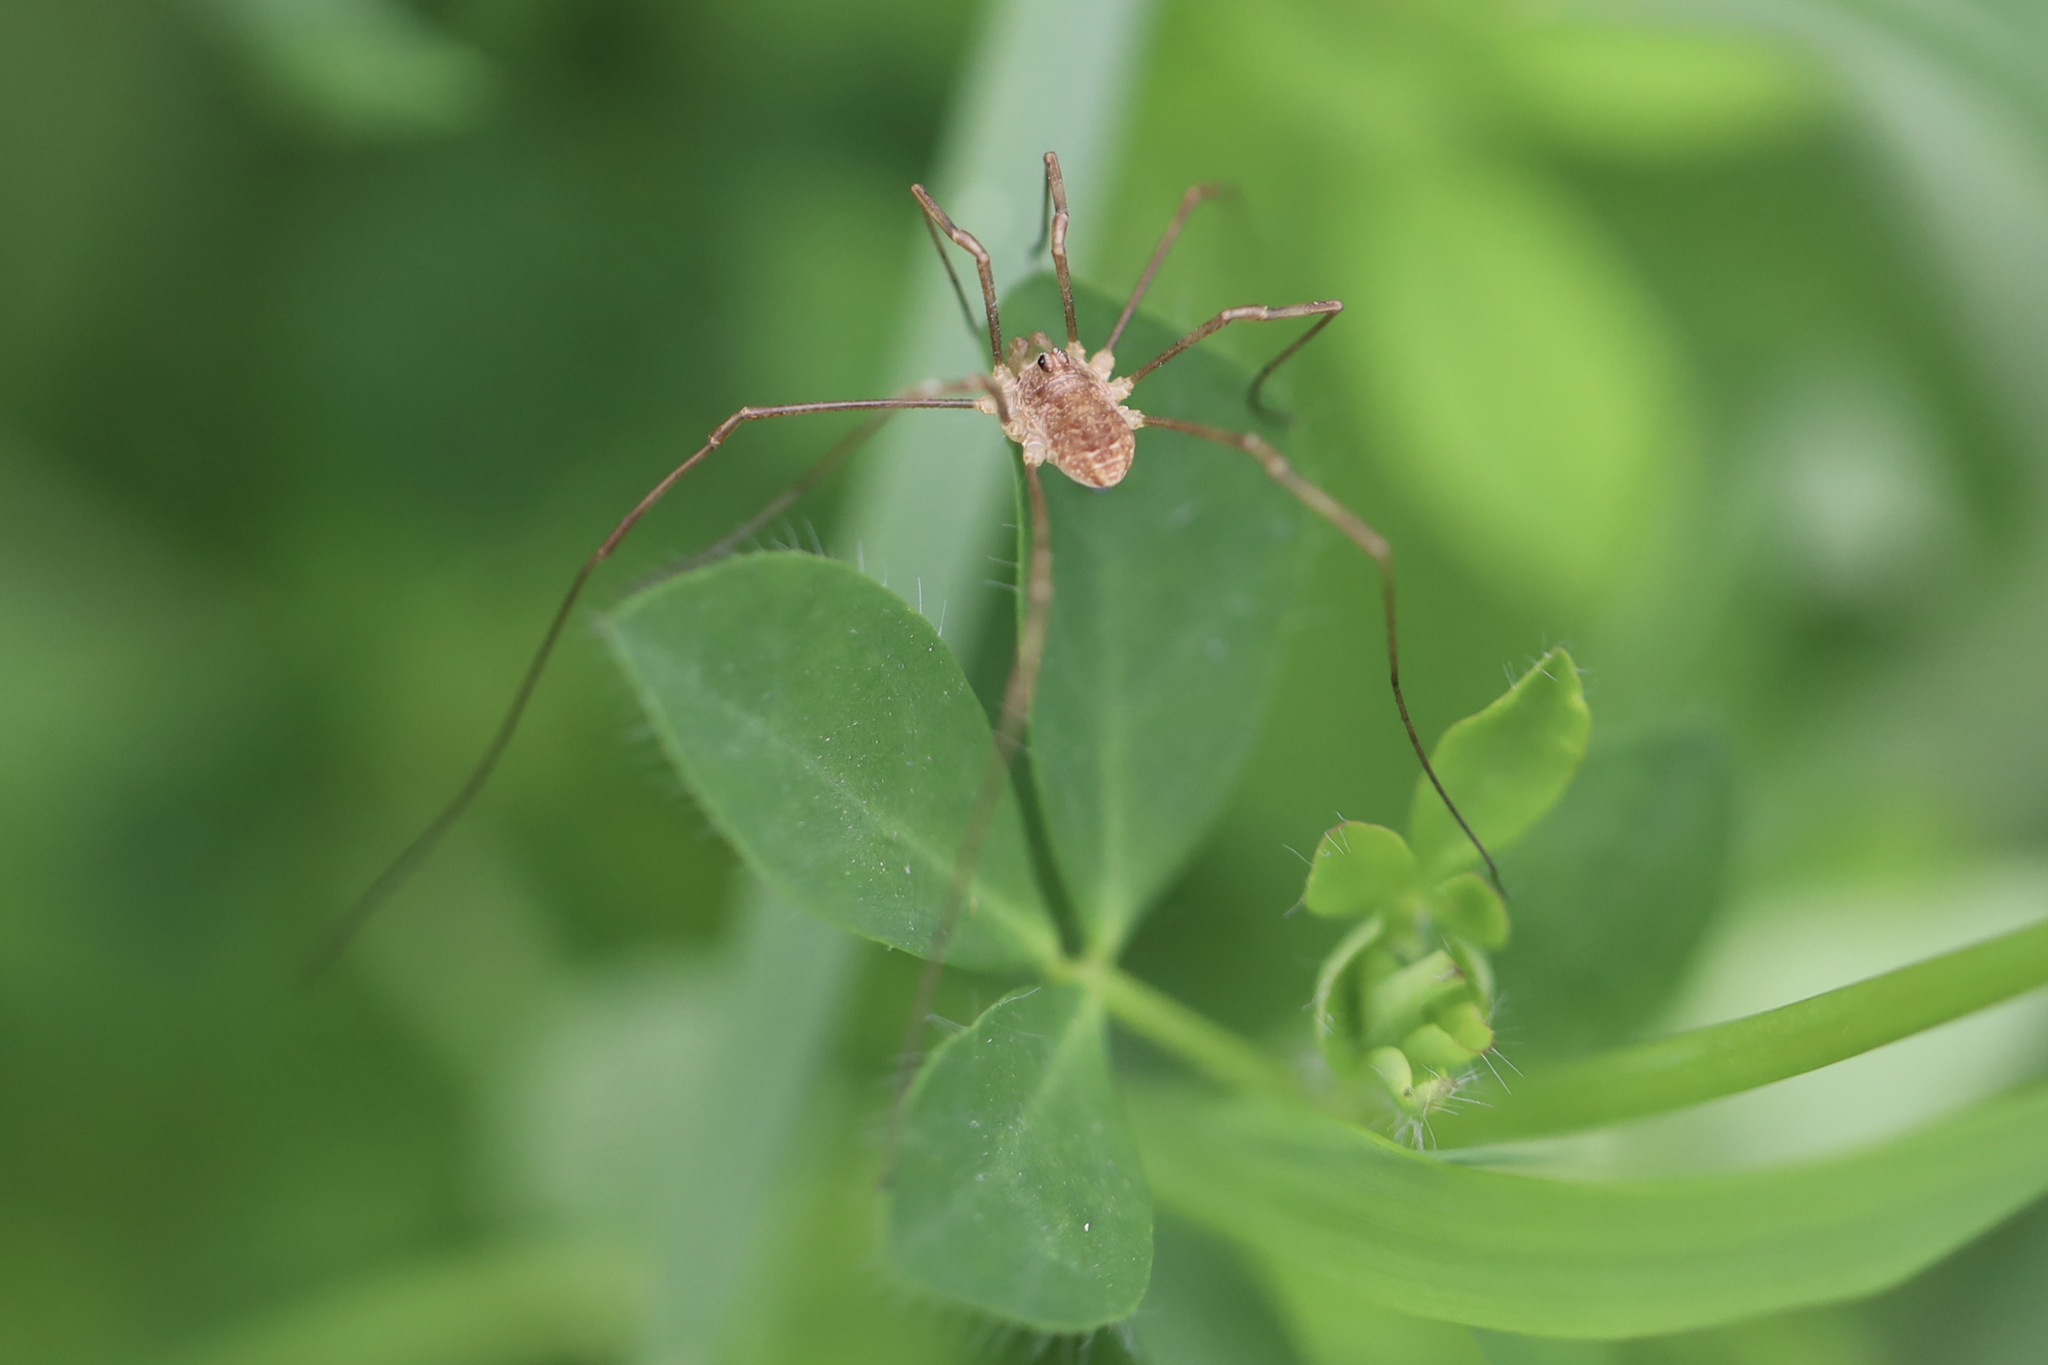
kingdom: Animalia
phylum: Arthropoda
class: Arachnida
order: Opiliones
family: Phalangiidae
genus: Rilaena
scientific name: Rilaena triangularis
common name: Spring harvestman
